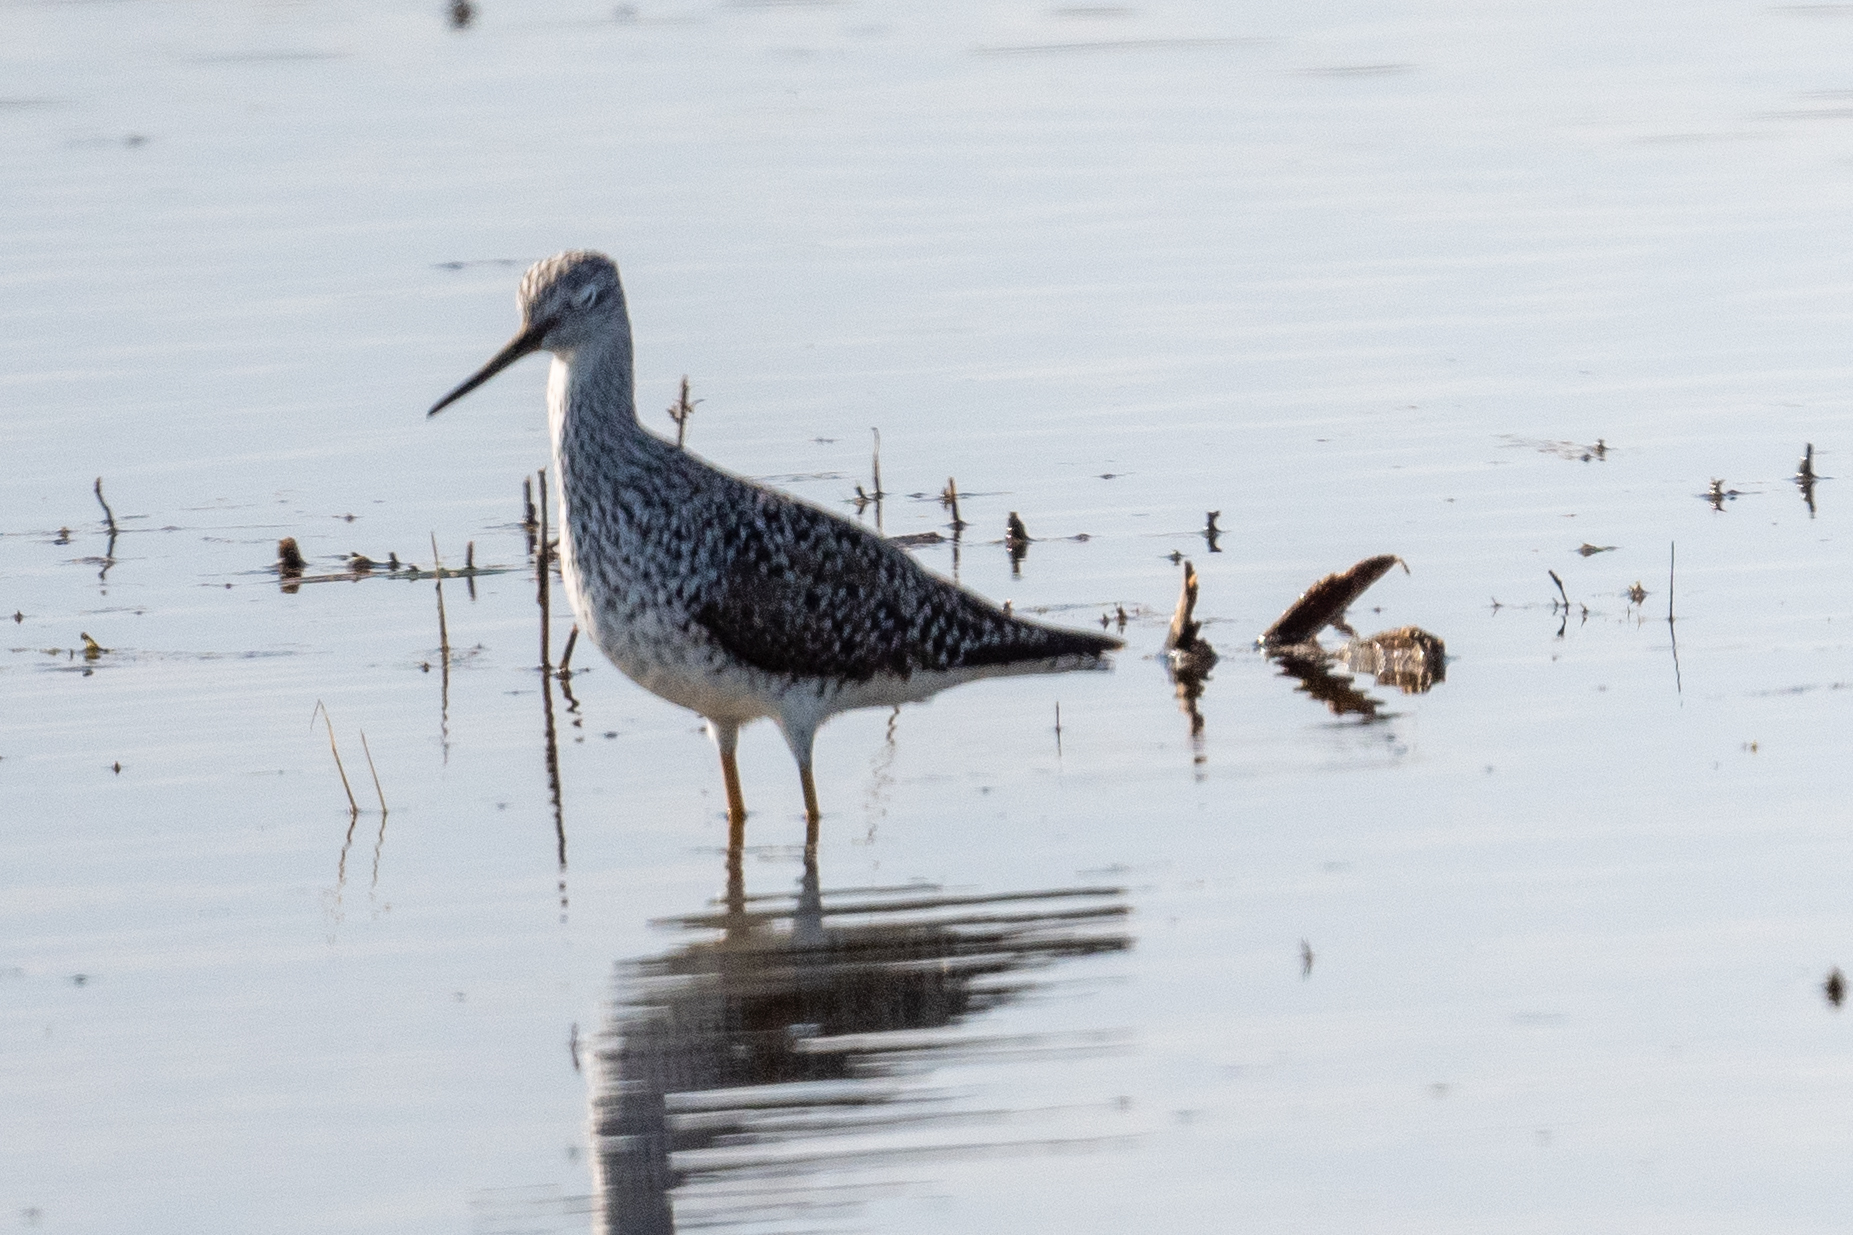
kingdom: Animalia
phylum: Chordata
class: Aves
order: Charadriiformes
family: Scolopacidae
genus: Tringa
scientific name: Tringa melanoleuca
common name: Greater yellowlegs
